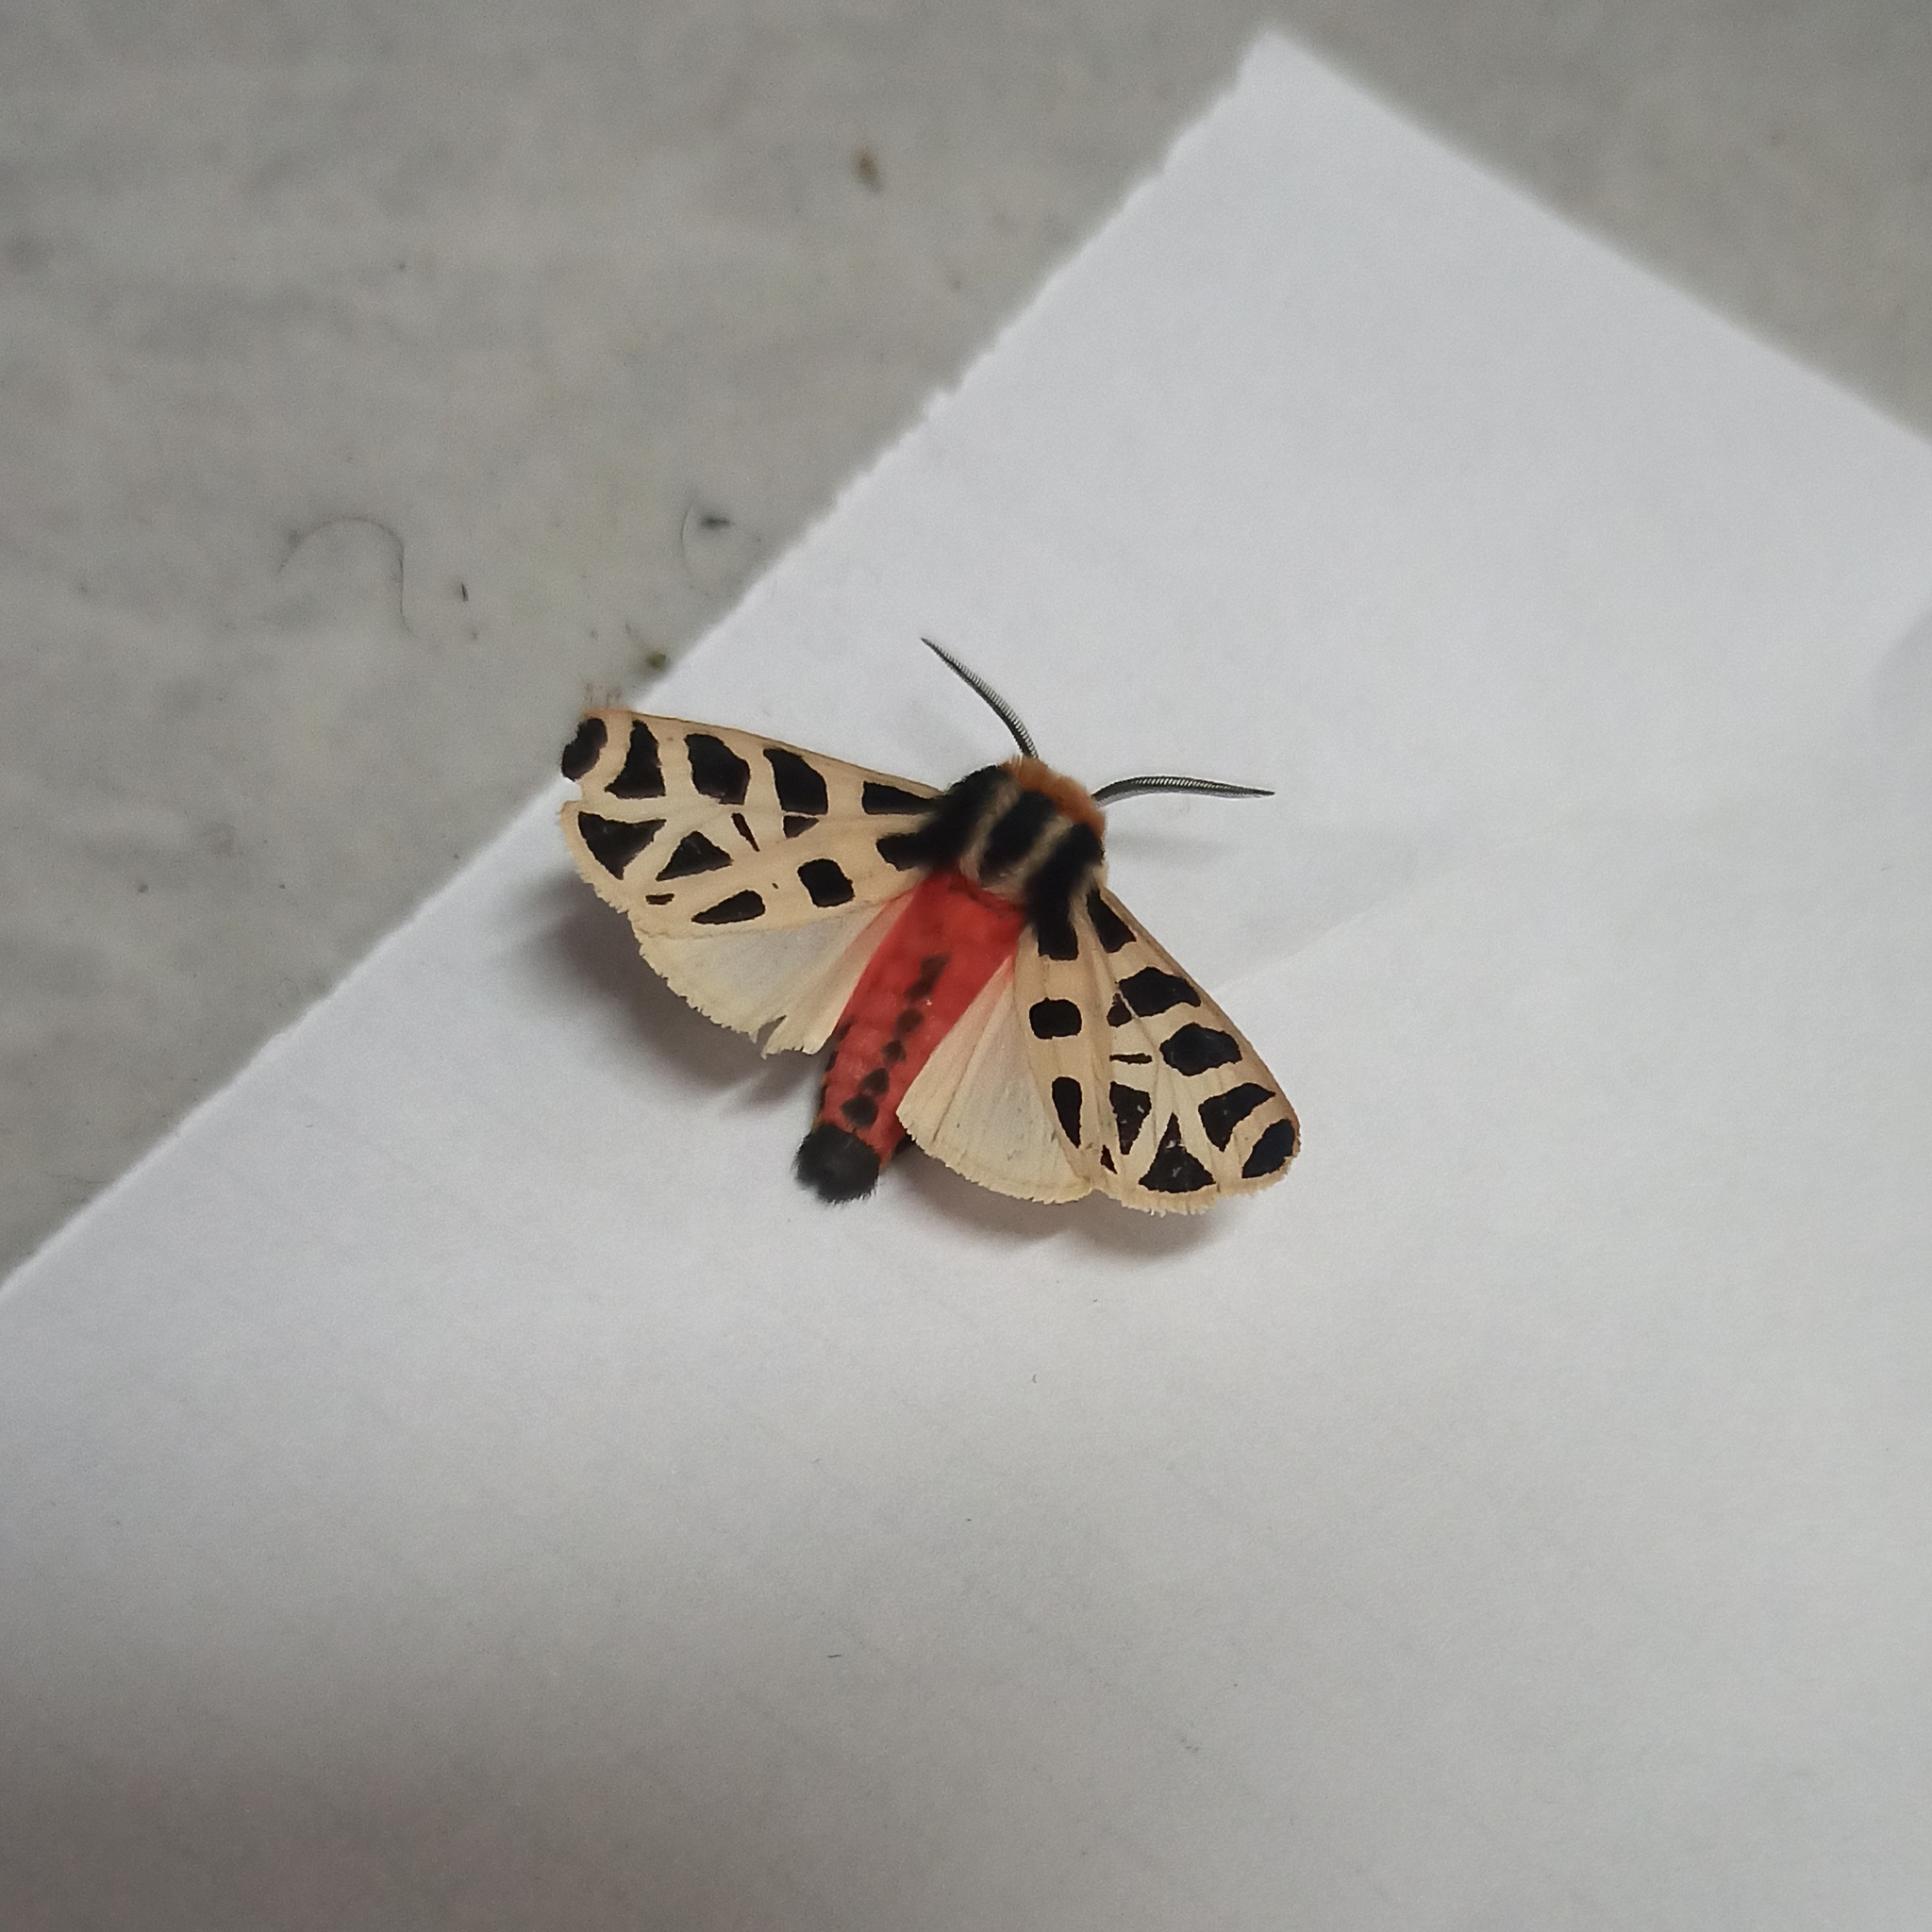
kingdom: Animalia
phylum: Arthropoda
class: Insecta
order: Lepidoptera
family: Erebidae
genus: Apantesis
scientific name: Apantesis
